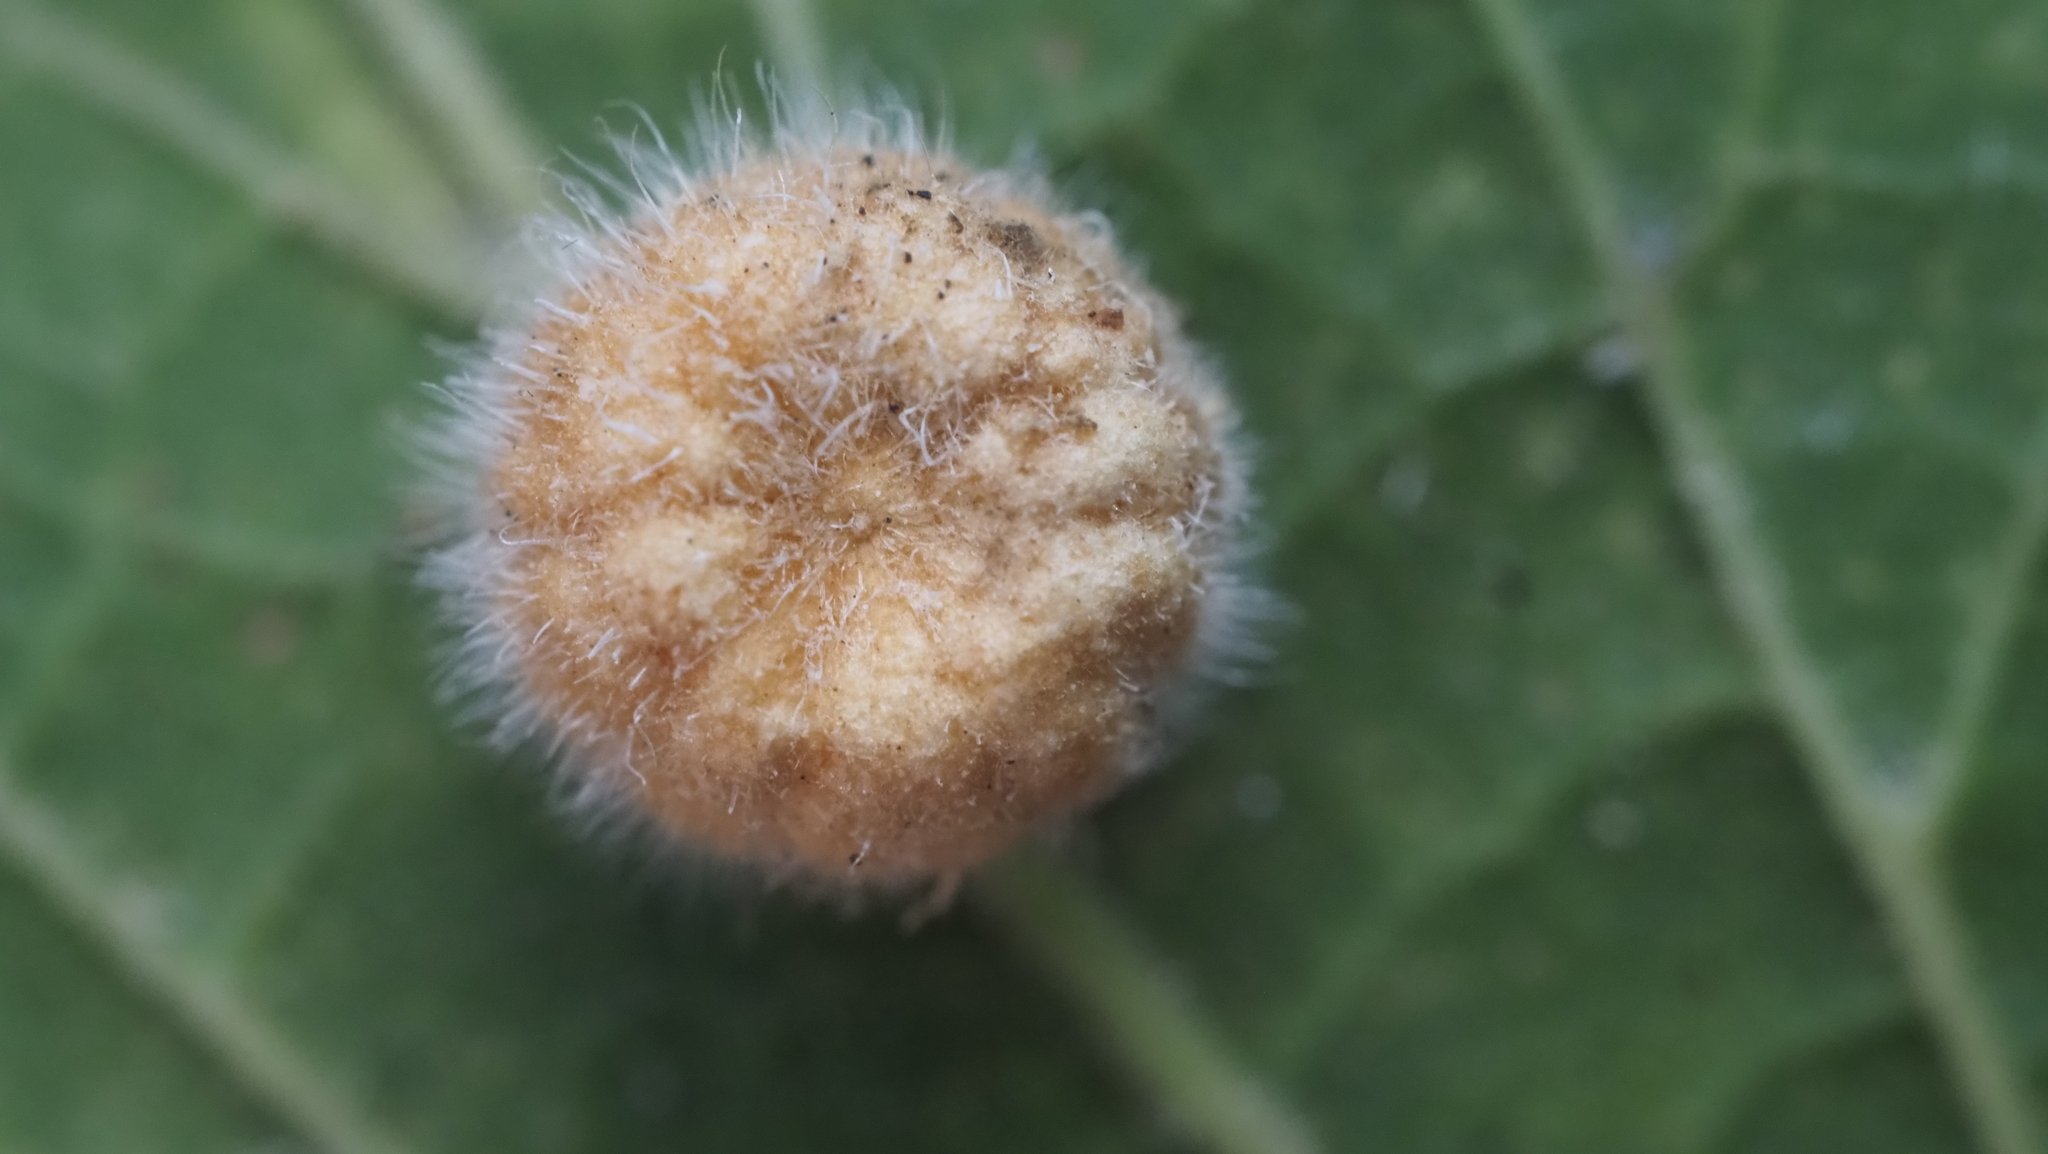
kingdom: Animalia
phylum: Arthropoda
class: Insecta
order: Diptera
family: Cecidomyiidae
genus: Celticecis
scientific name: Celticecis pubescens
